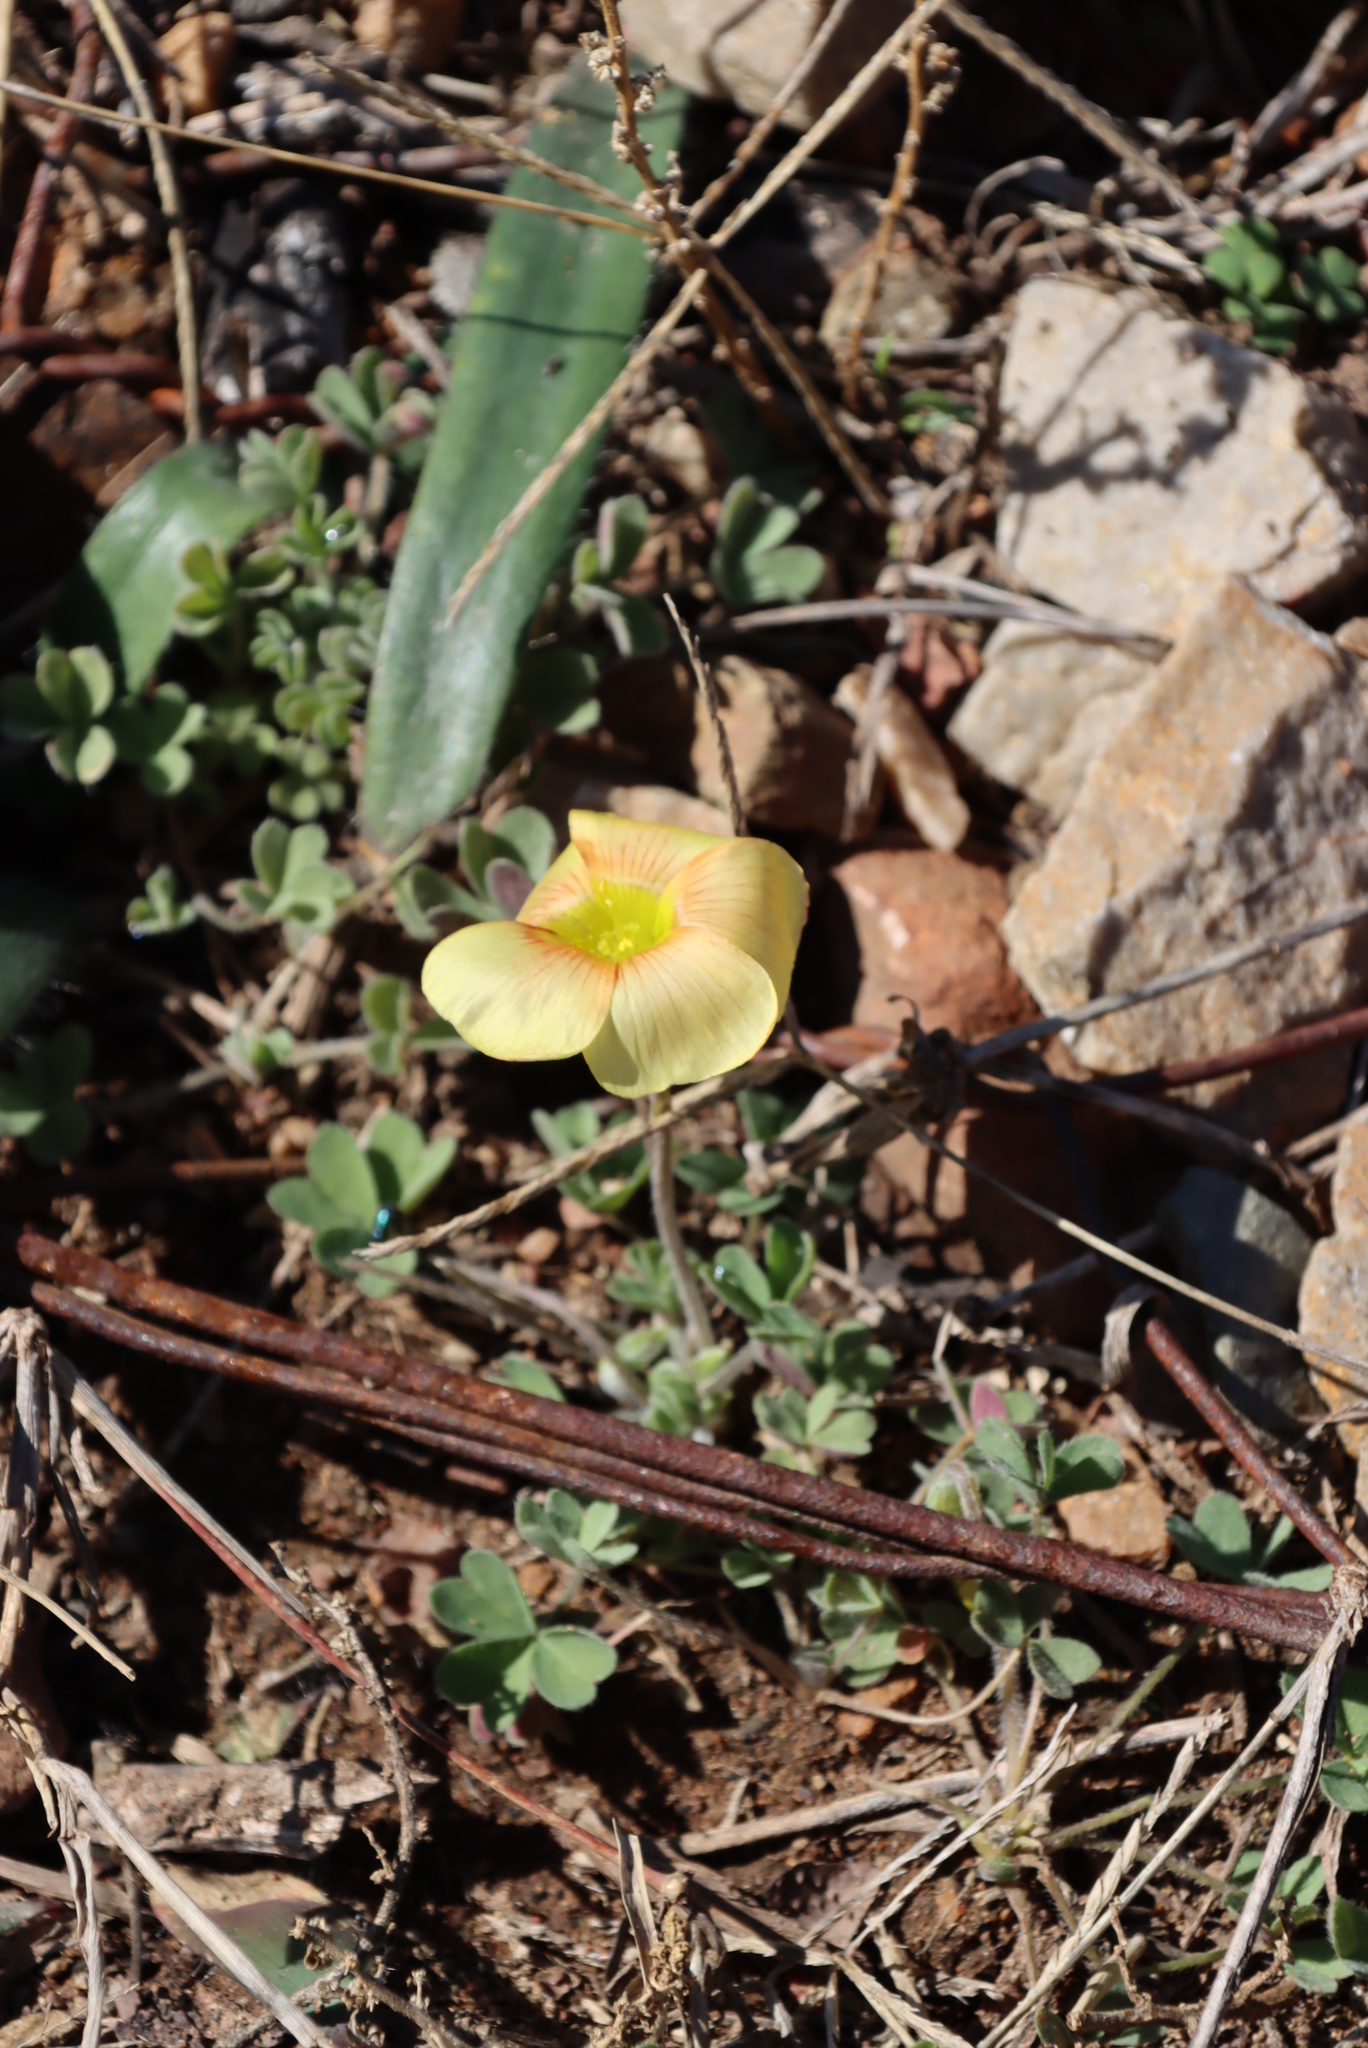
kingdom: Plantae
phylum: Tracheophyta
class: Magnoliopsida
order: Oxalidales
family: Oxalidaceae
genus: Oxalis
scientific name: Oxalis obtusa
